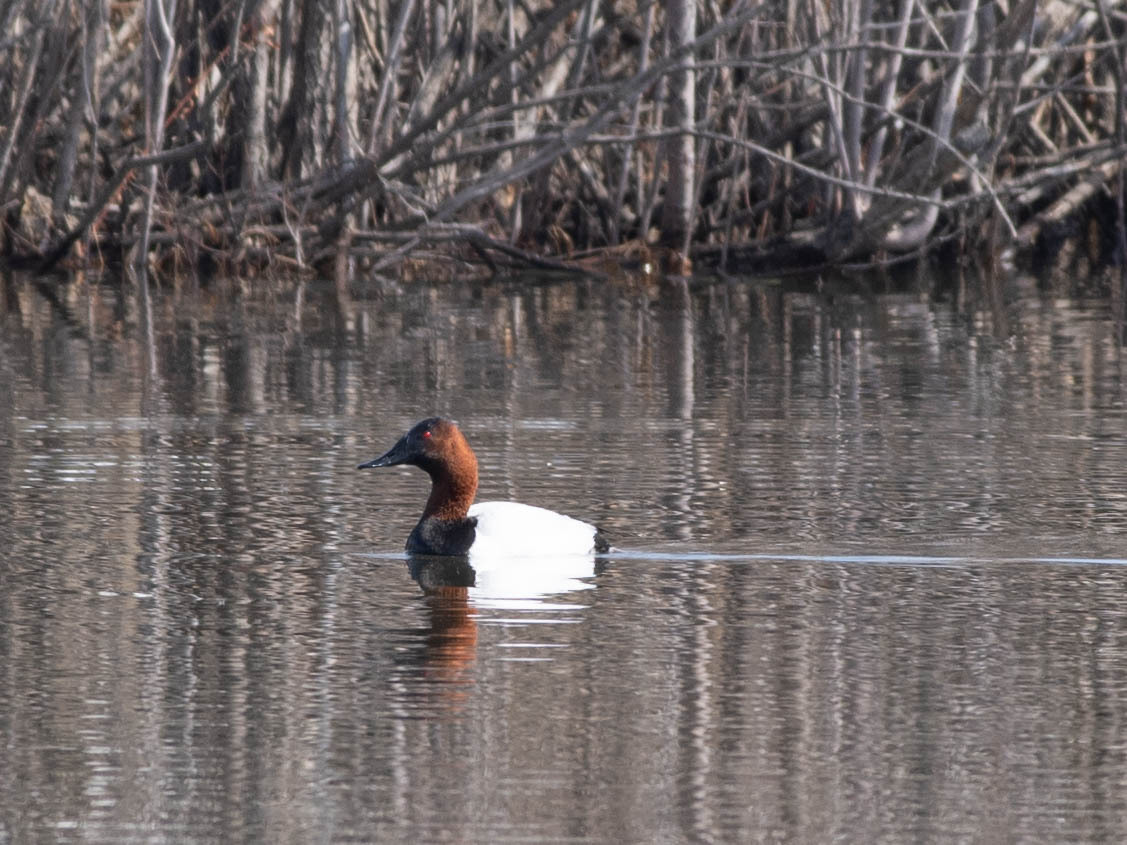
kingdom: Animalia
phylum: Chordata
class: Aves
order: Anseriformes
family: Anatidae
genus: Aythya
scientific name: Aythya valisineria
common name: Canvasback
